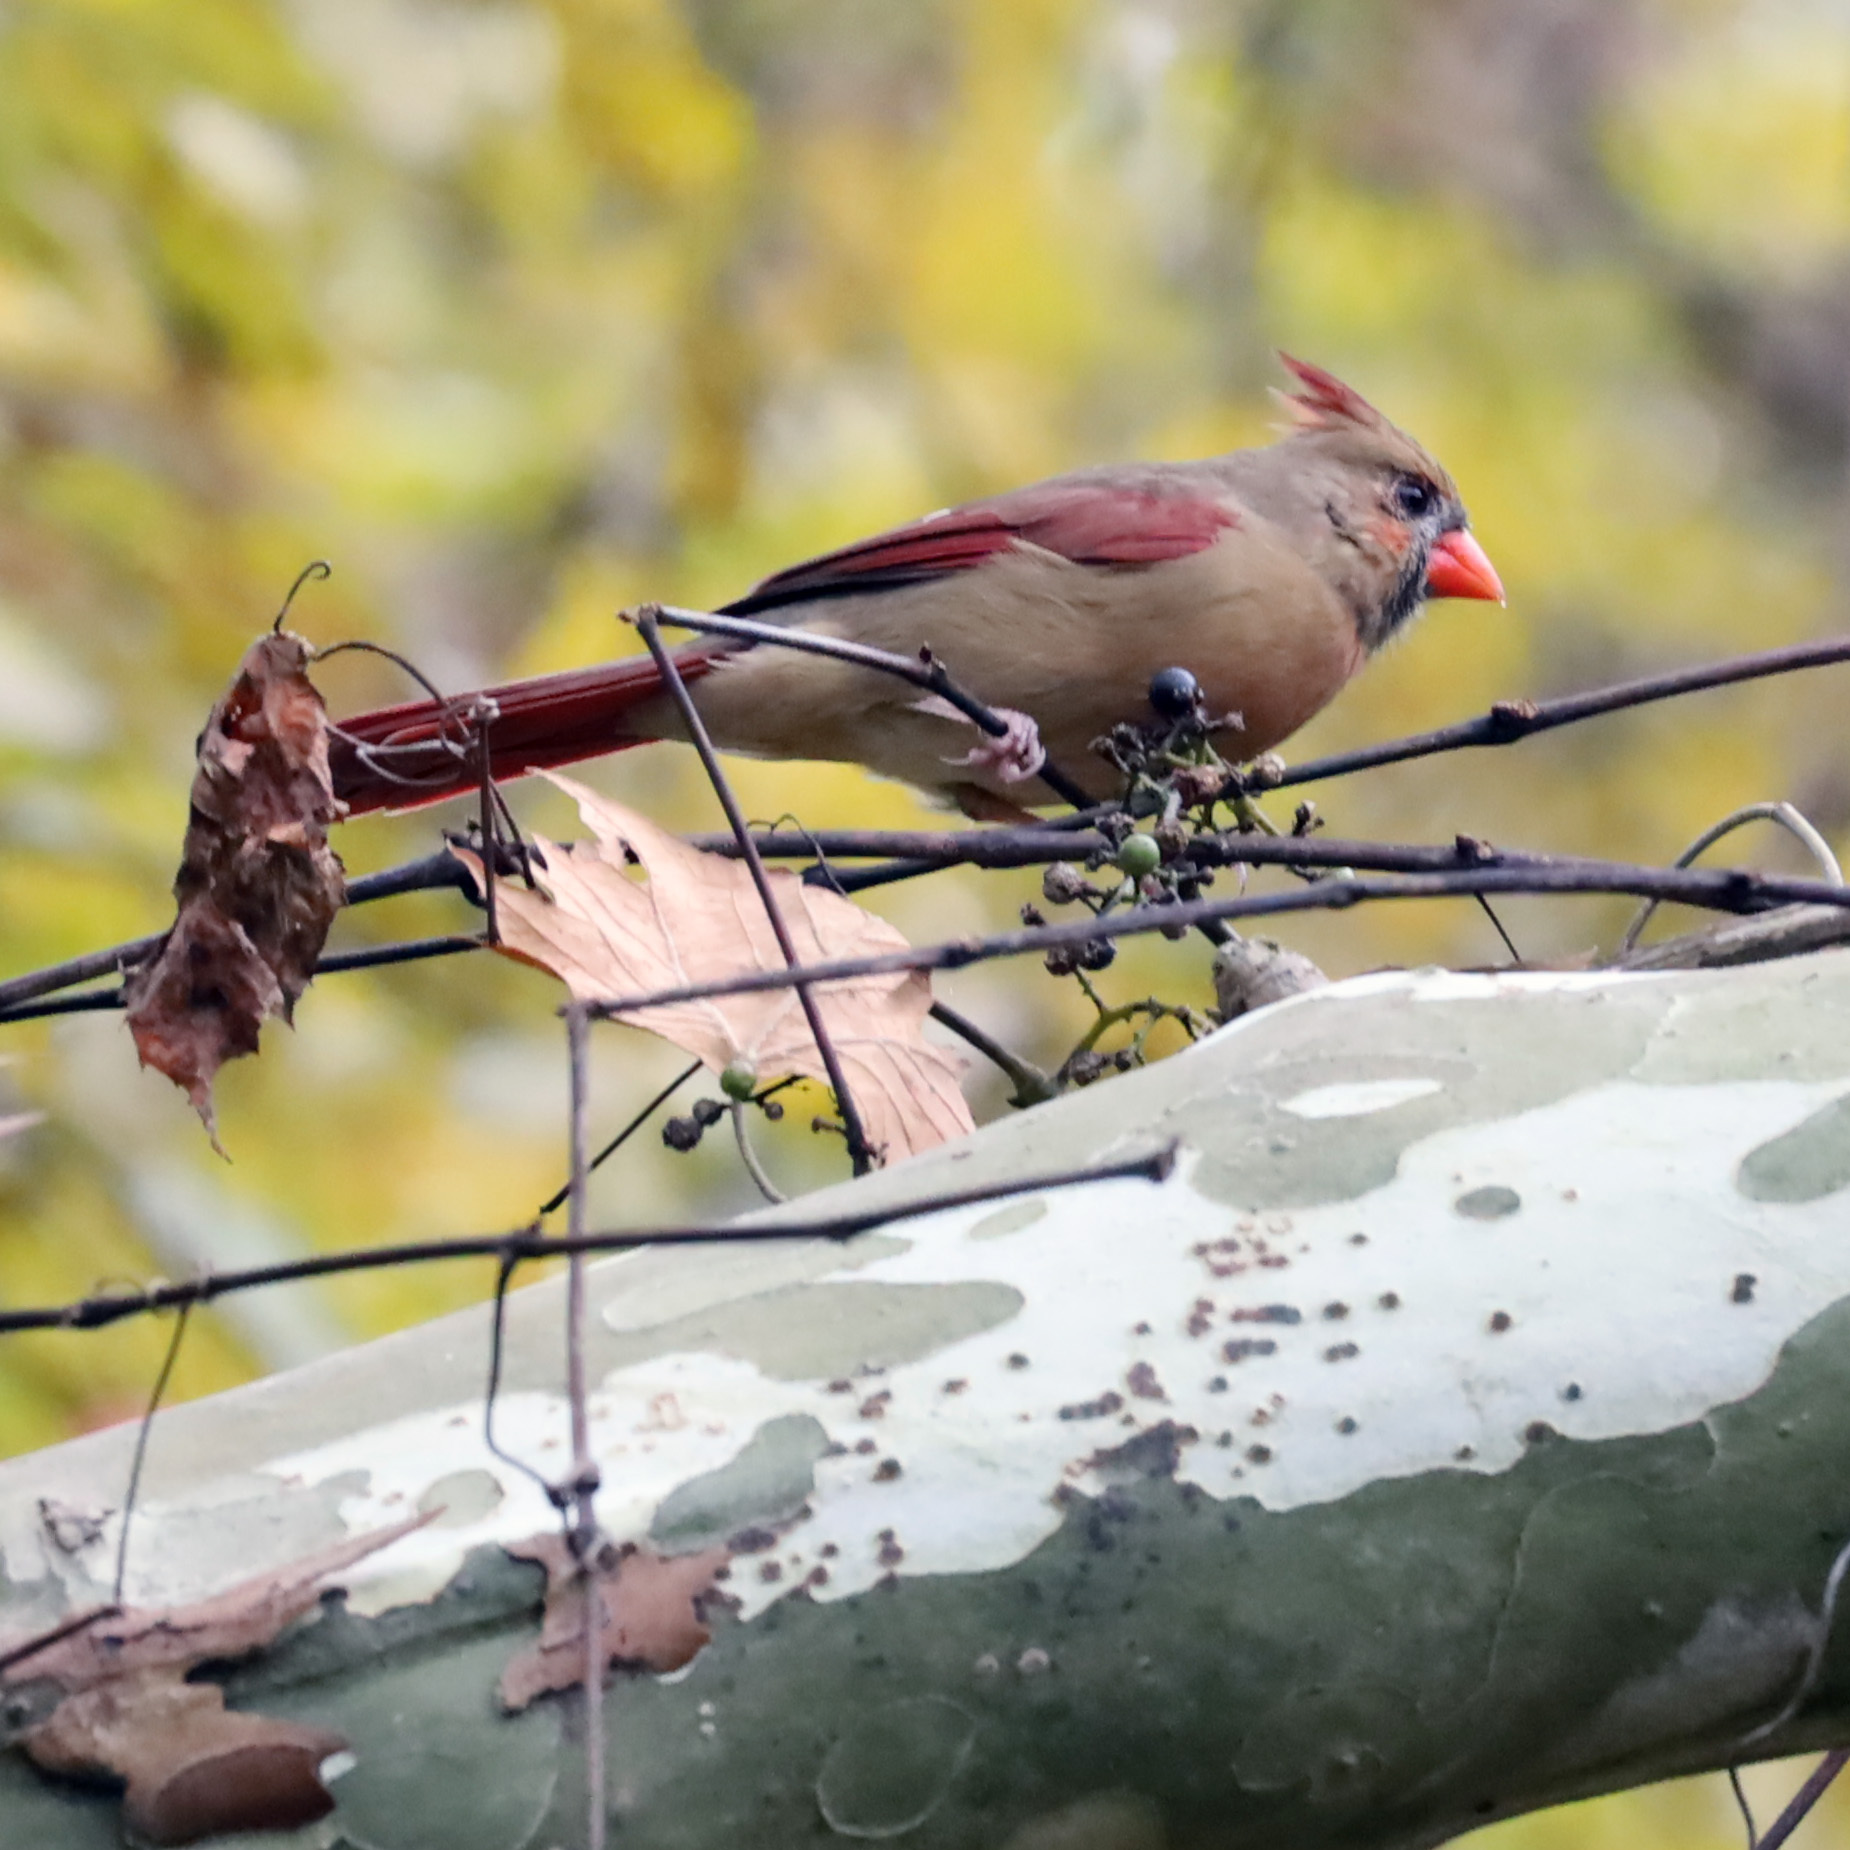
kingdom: Animalia
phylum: Chordata
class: Aves
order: Passeriformes
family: Cardinalidae
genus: Cardinalis
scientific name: Cardinalis cardinalis
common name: Northern cardinal
